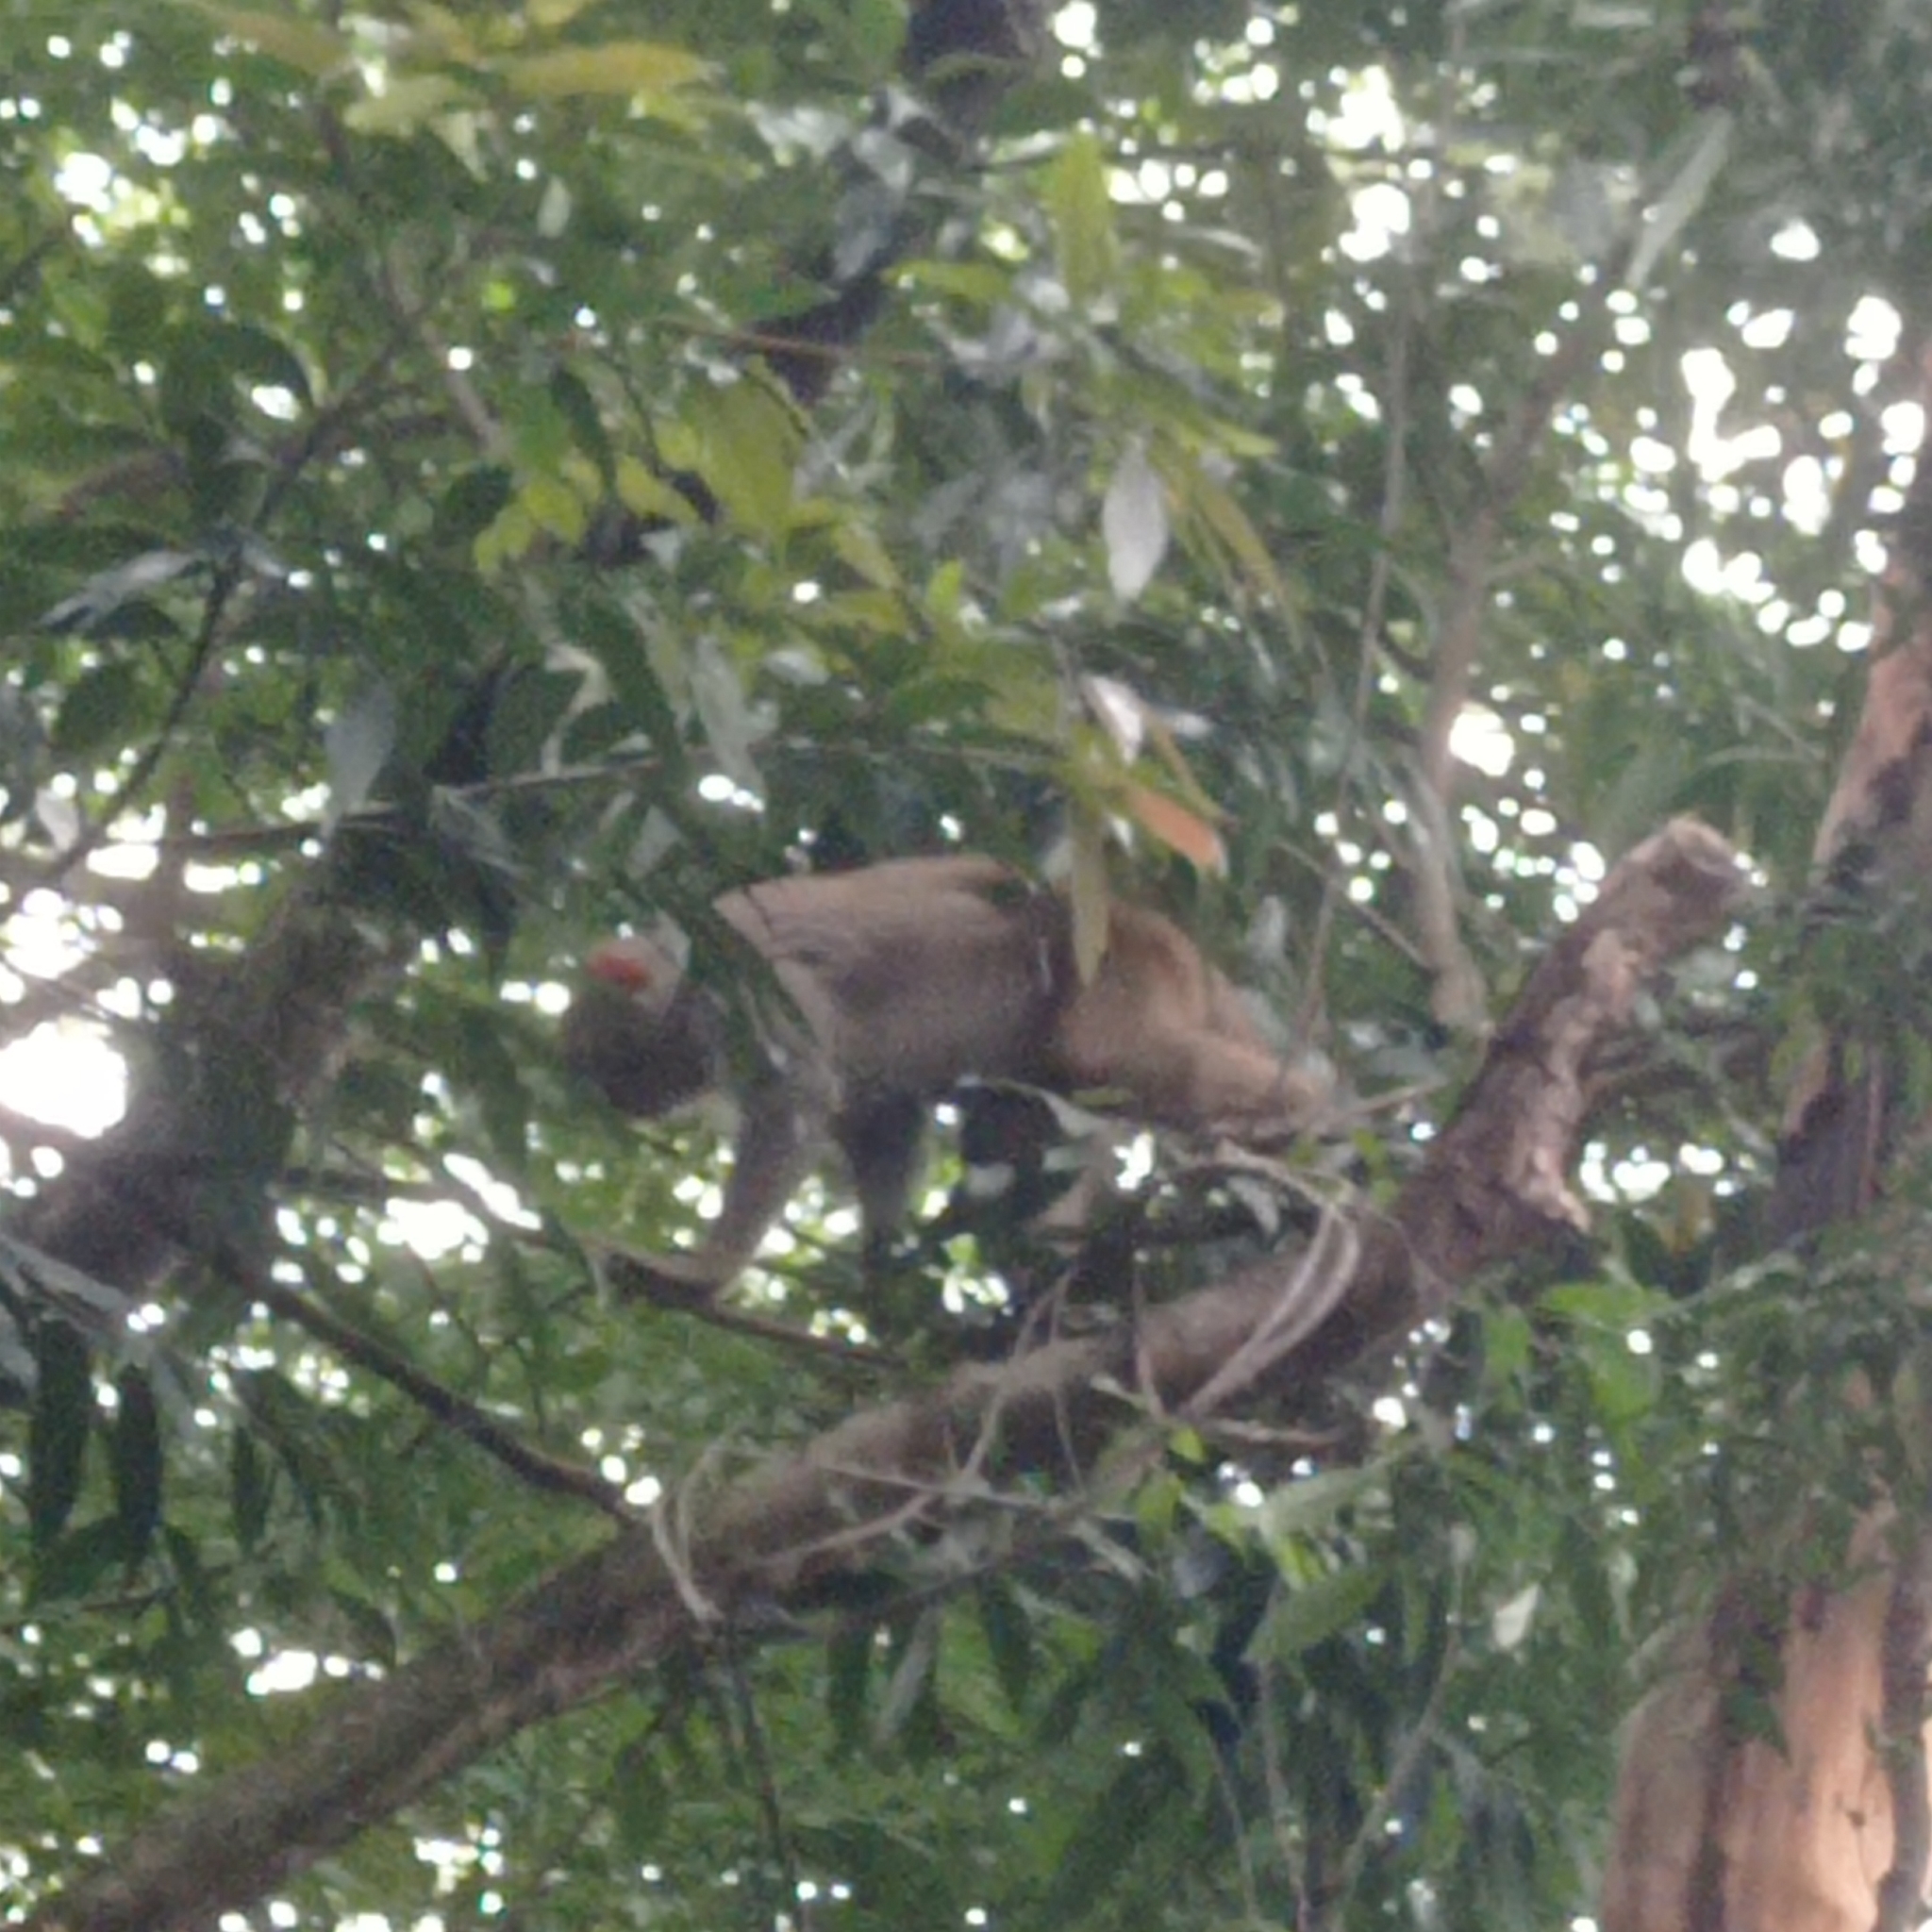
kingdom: Animalia
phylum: Chordata
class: Mammalia
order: Primates
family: Cercopithecidae
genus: Macaca
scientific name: Macaca mulatta
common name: Rhesus monkey
